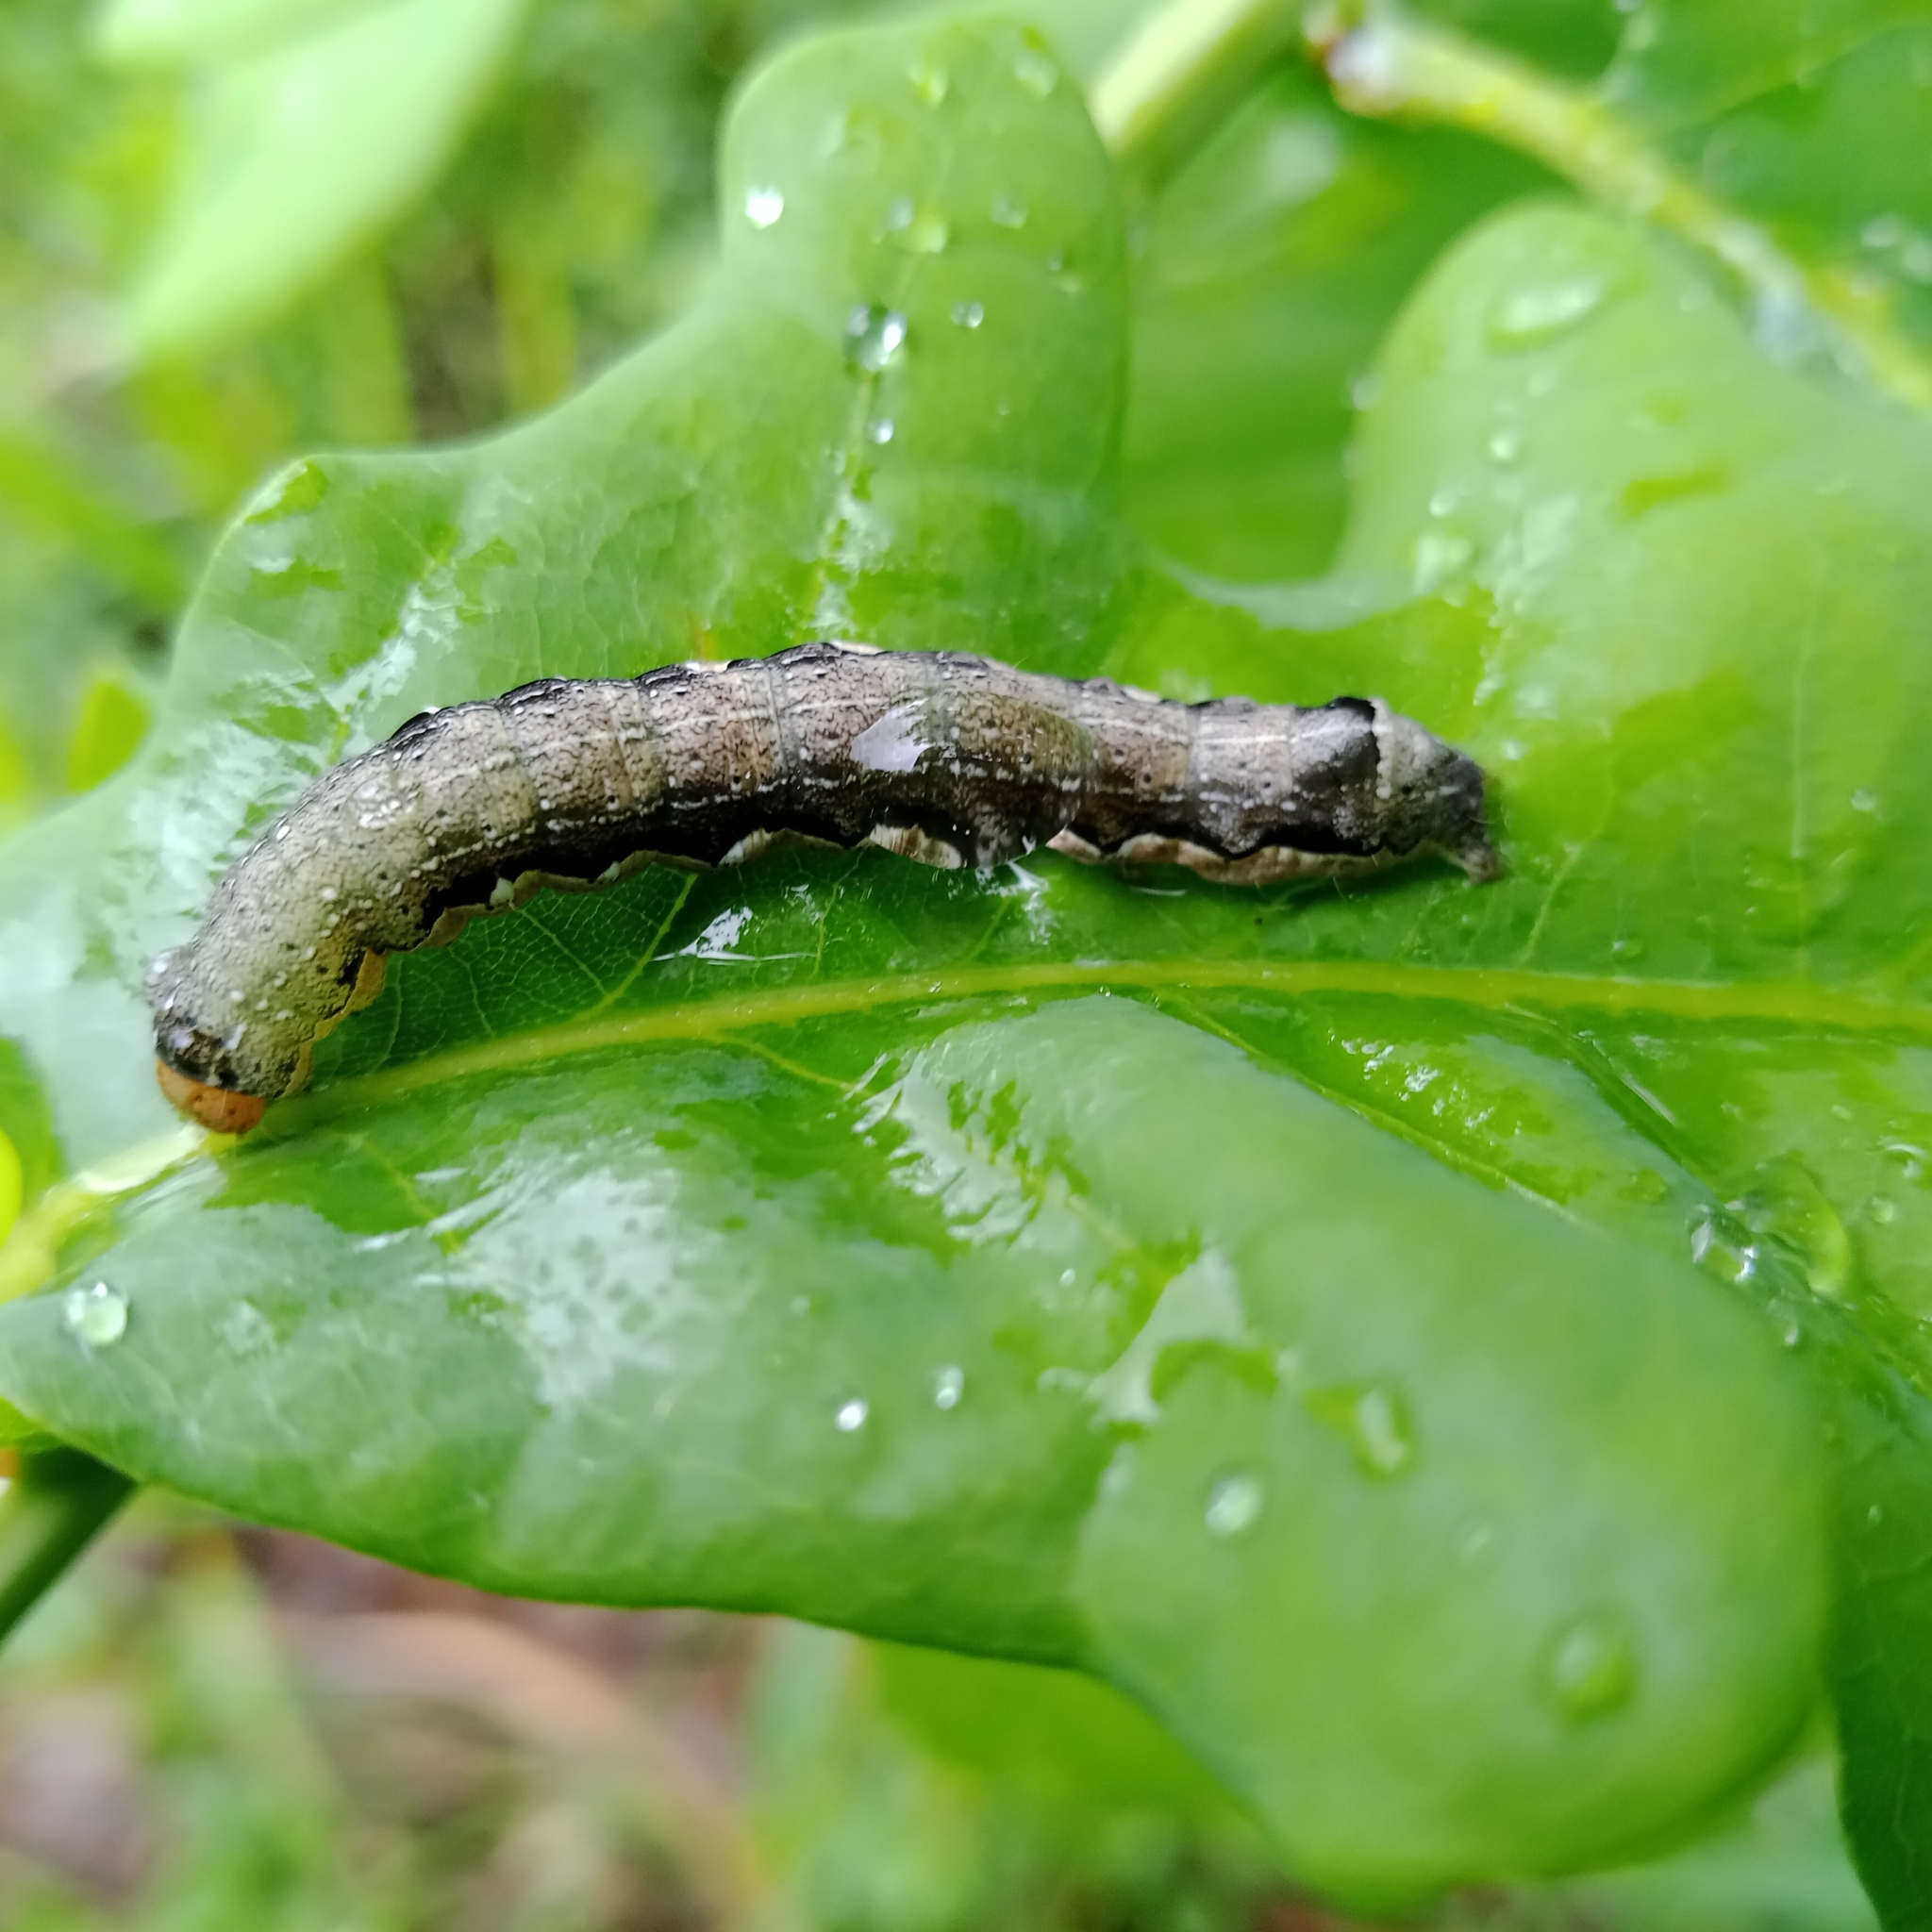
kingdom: Animalia
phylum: Arthropoda
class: Insecta
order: Lepidoptera
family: Noctuidae
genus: Anorthoa
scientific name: Anorthoa munda
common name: Twin-spotted quaker
